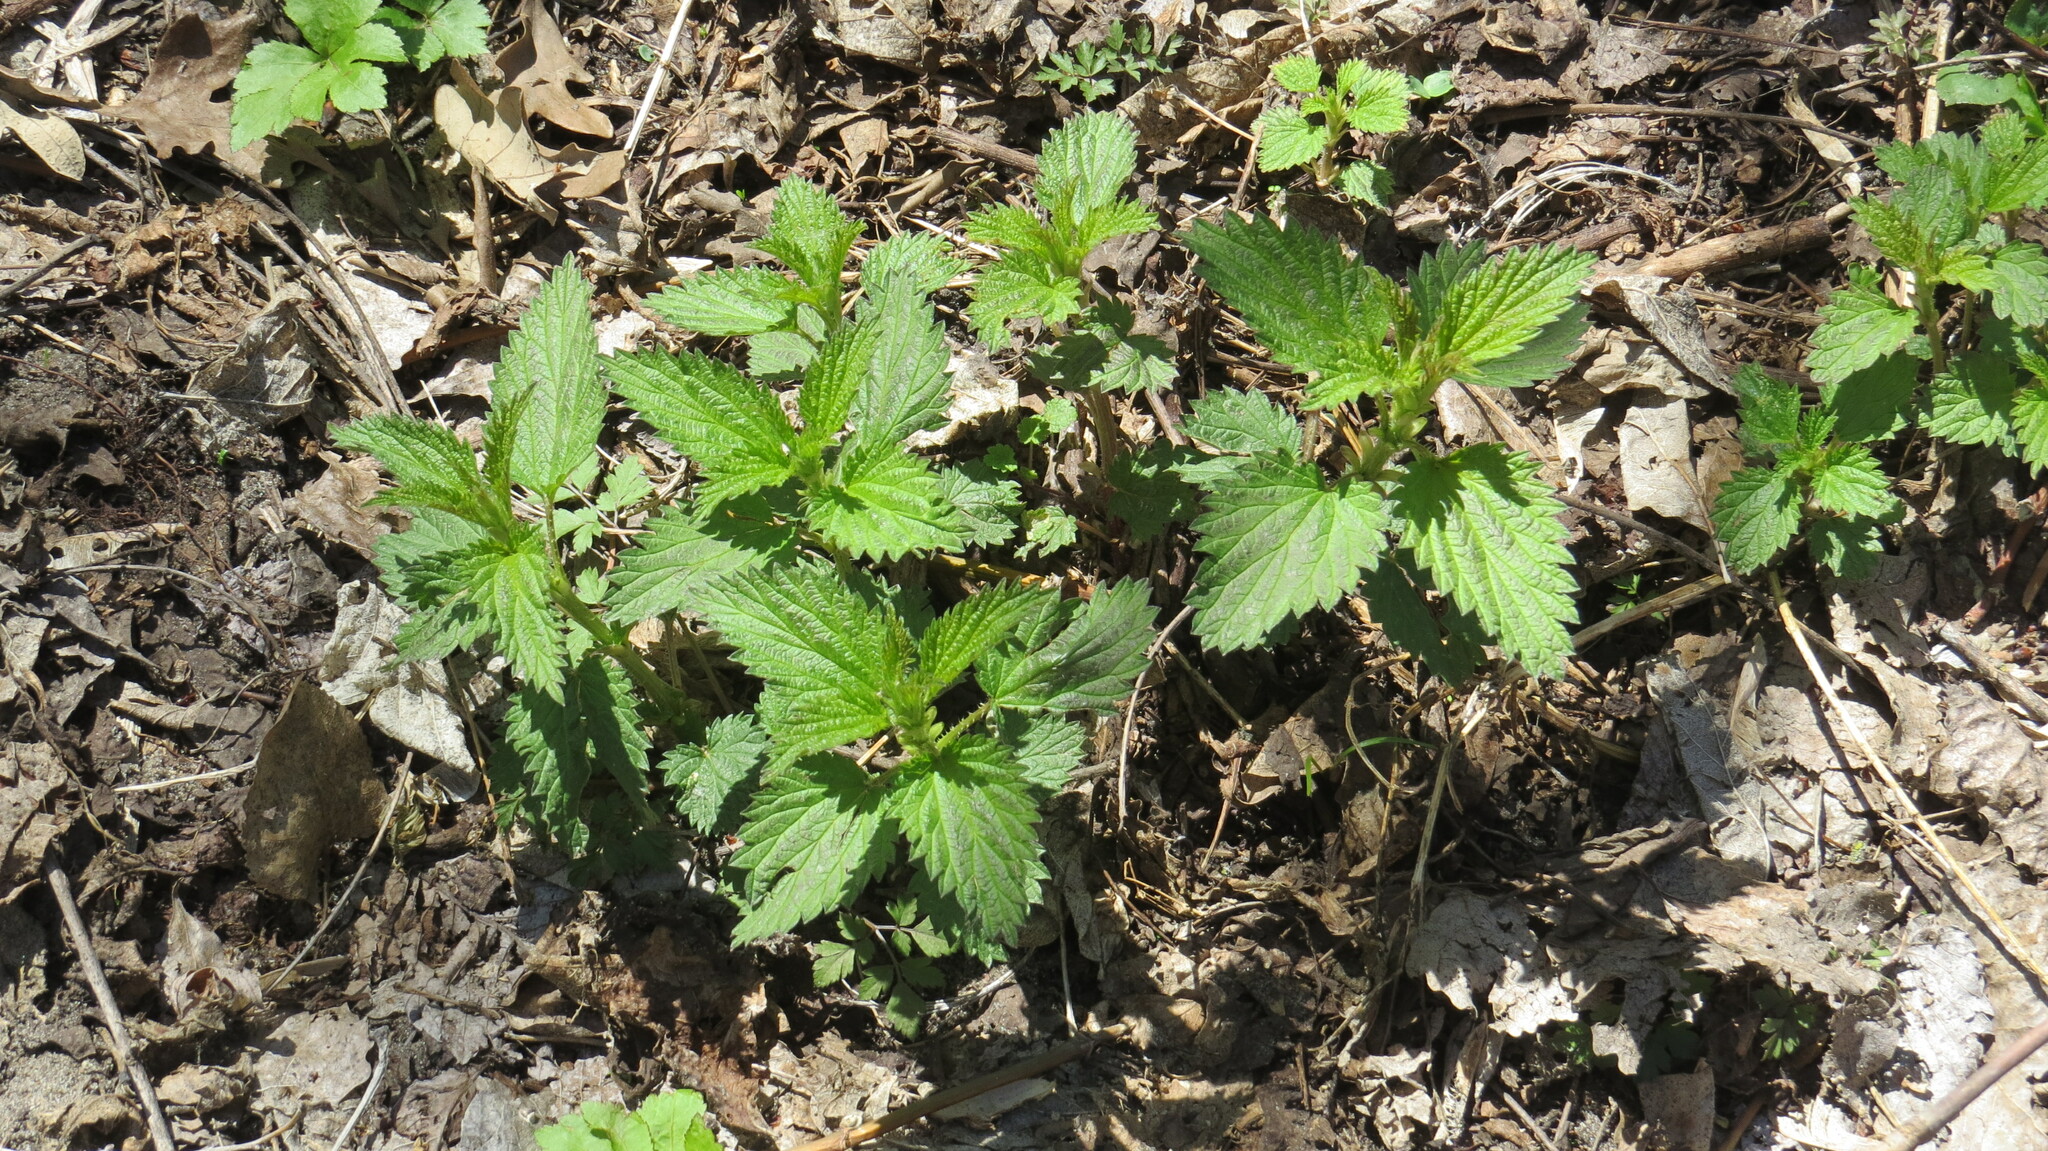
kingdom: Plantae
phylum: Tracheophyta
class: Magnoliopsida
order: Rosales
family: Urticaceae
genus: Urtica
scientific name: Urtica dioica
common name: Common nettle
